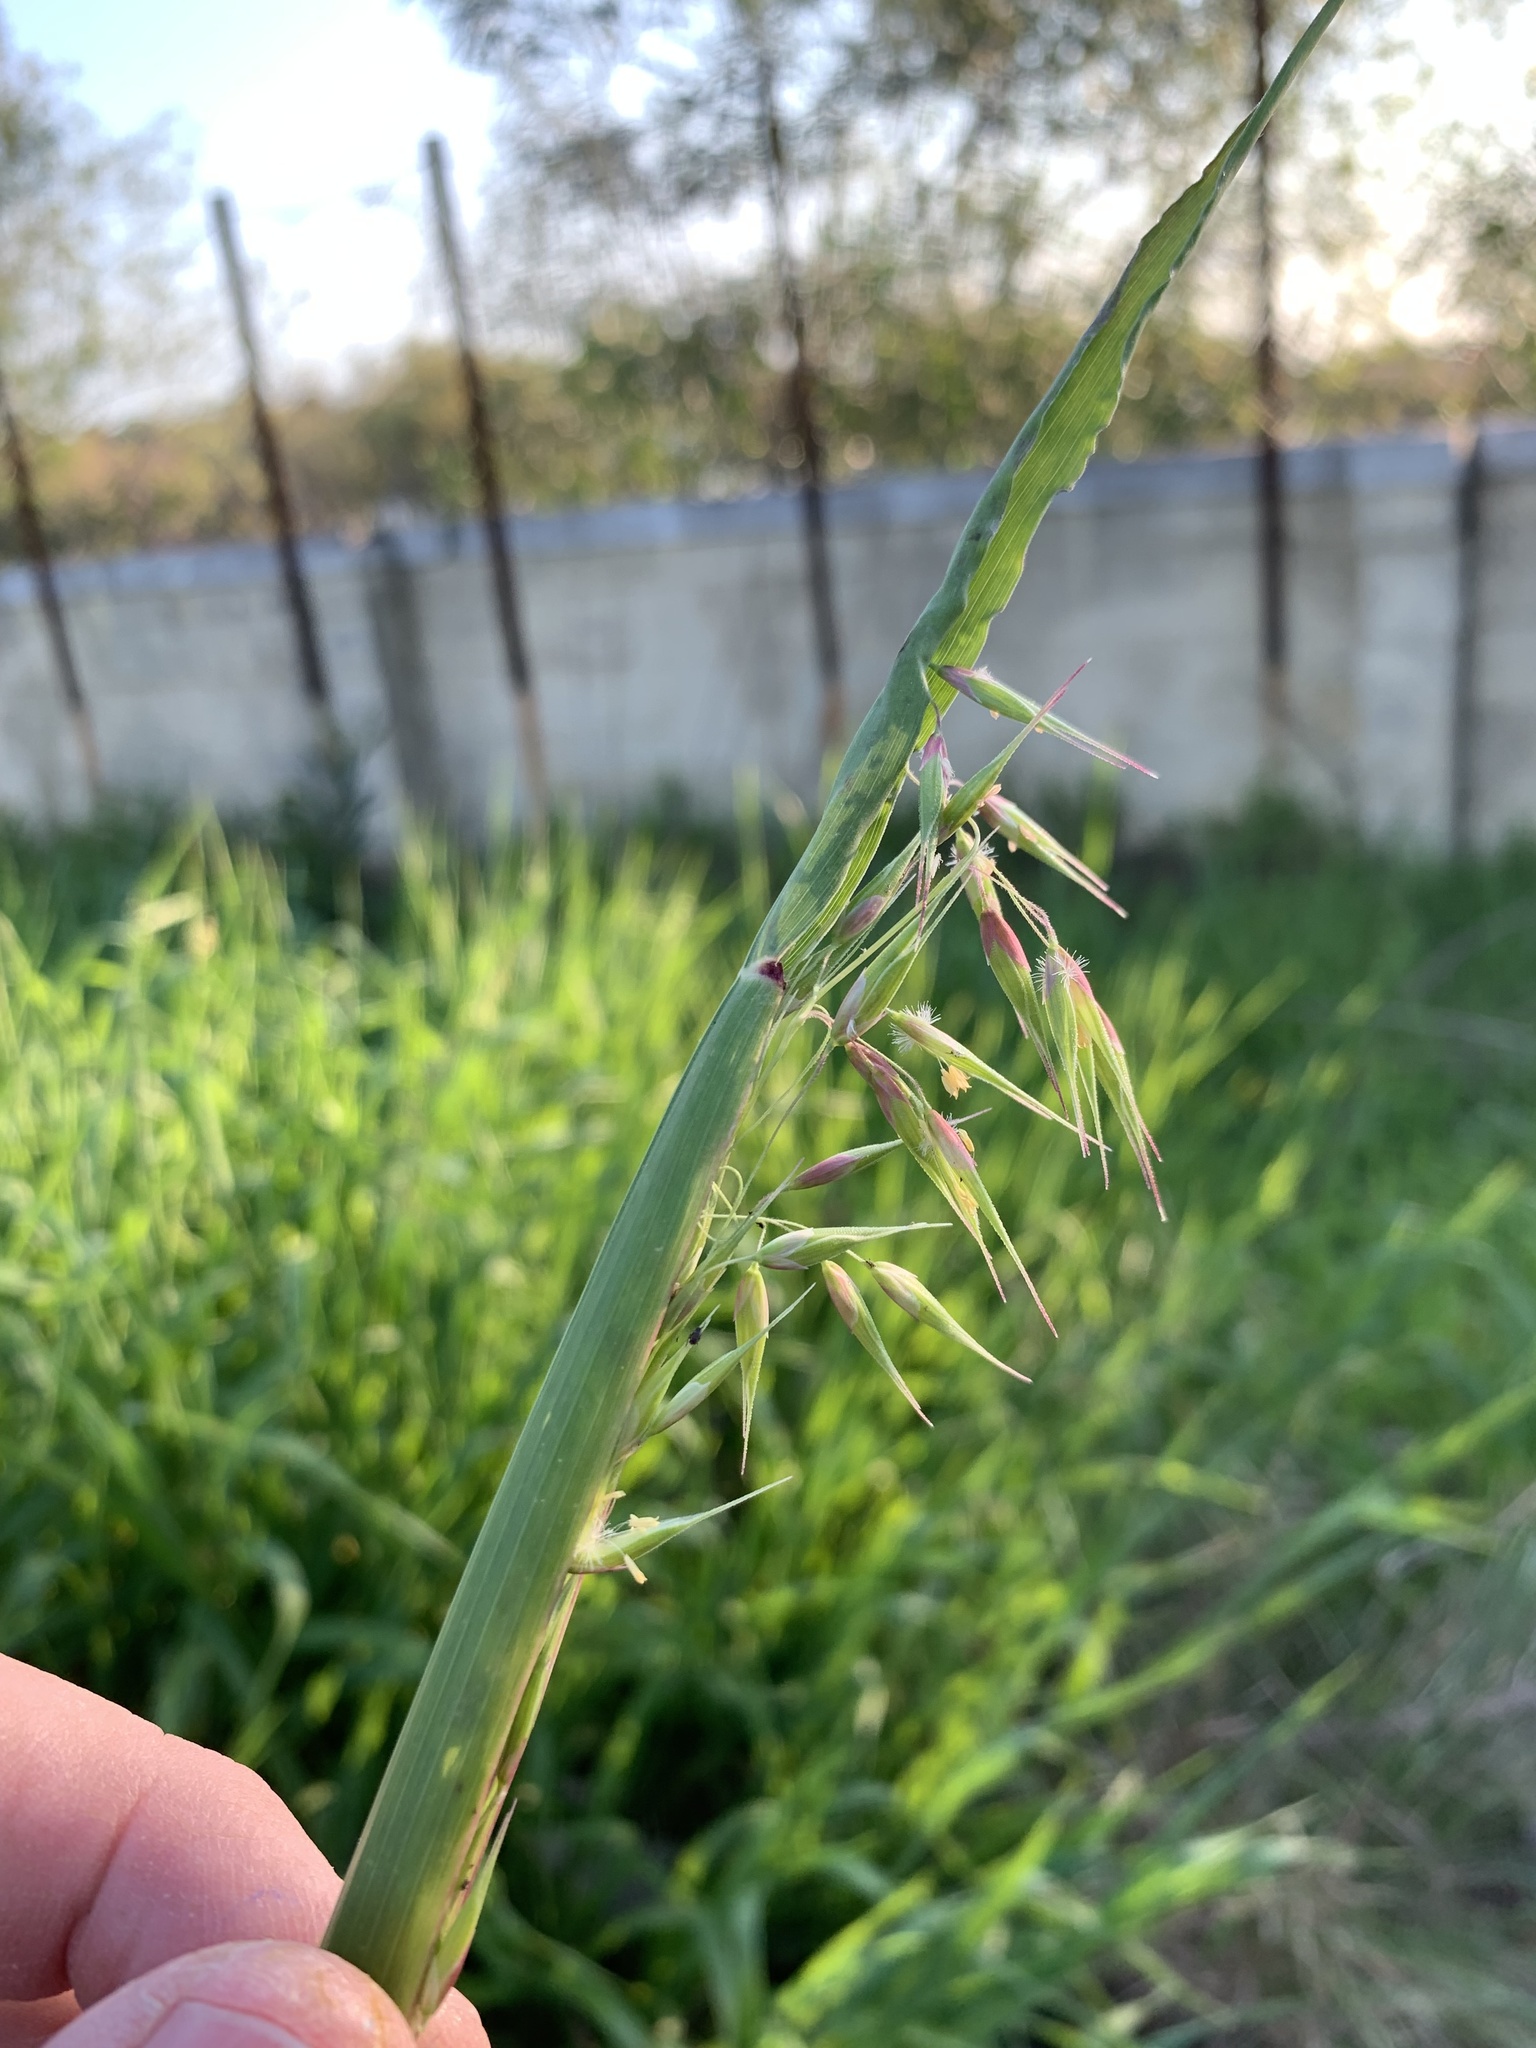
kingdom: Plantae
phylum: Tracheophyta
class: Liliopsida
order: Poales
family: Poaceae
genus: Ehrharta
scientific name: Ehrharta longiflora
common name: Longflowered veldtgrass
